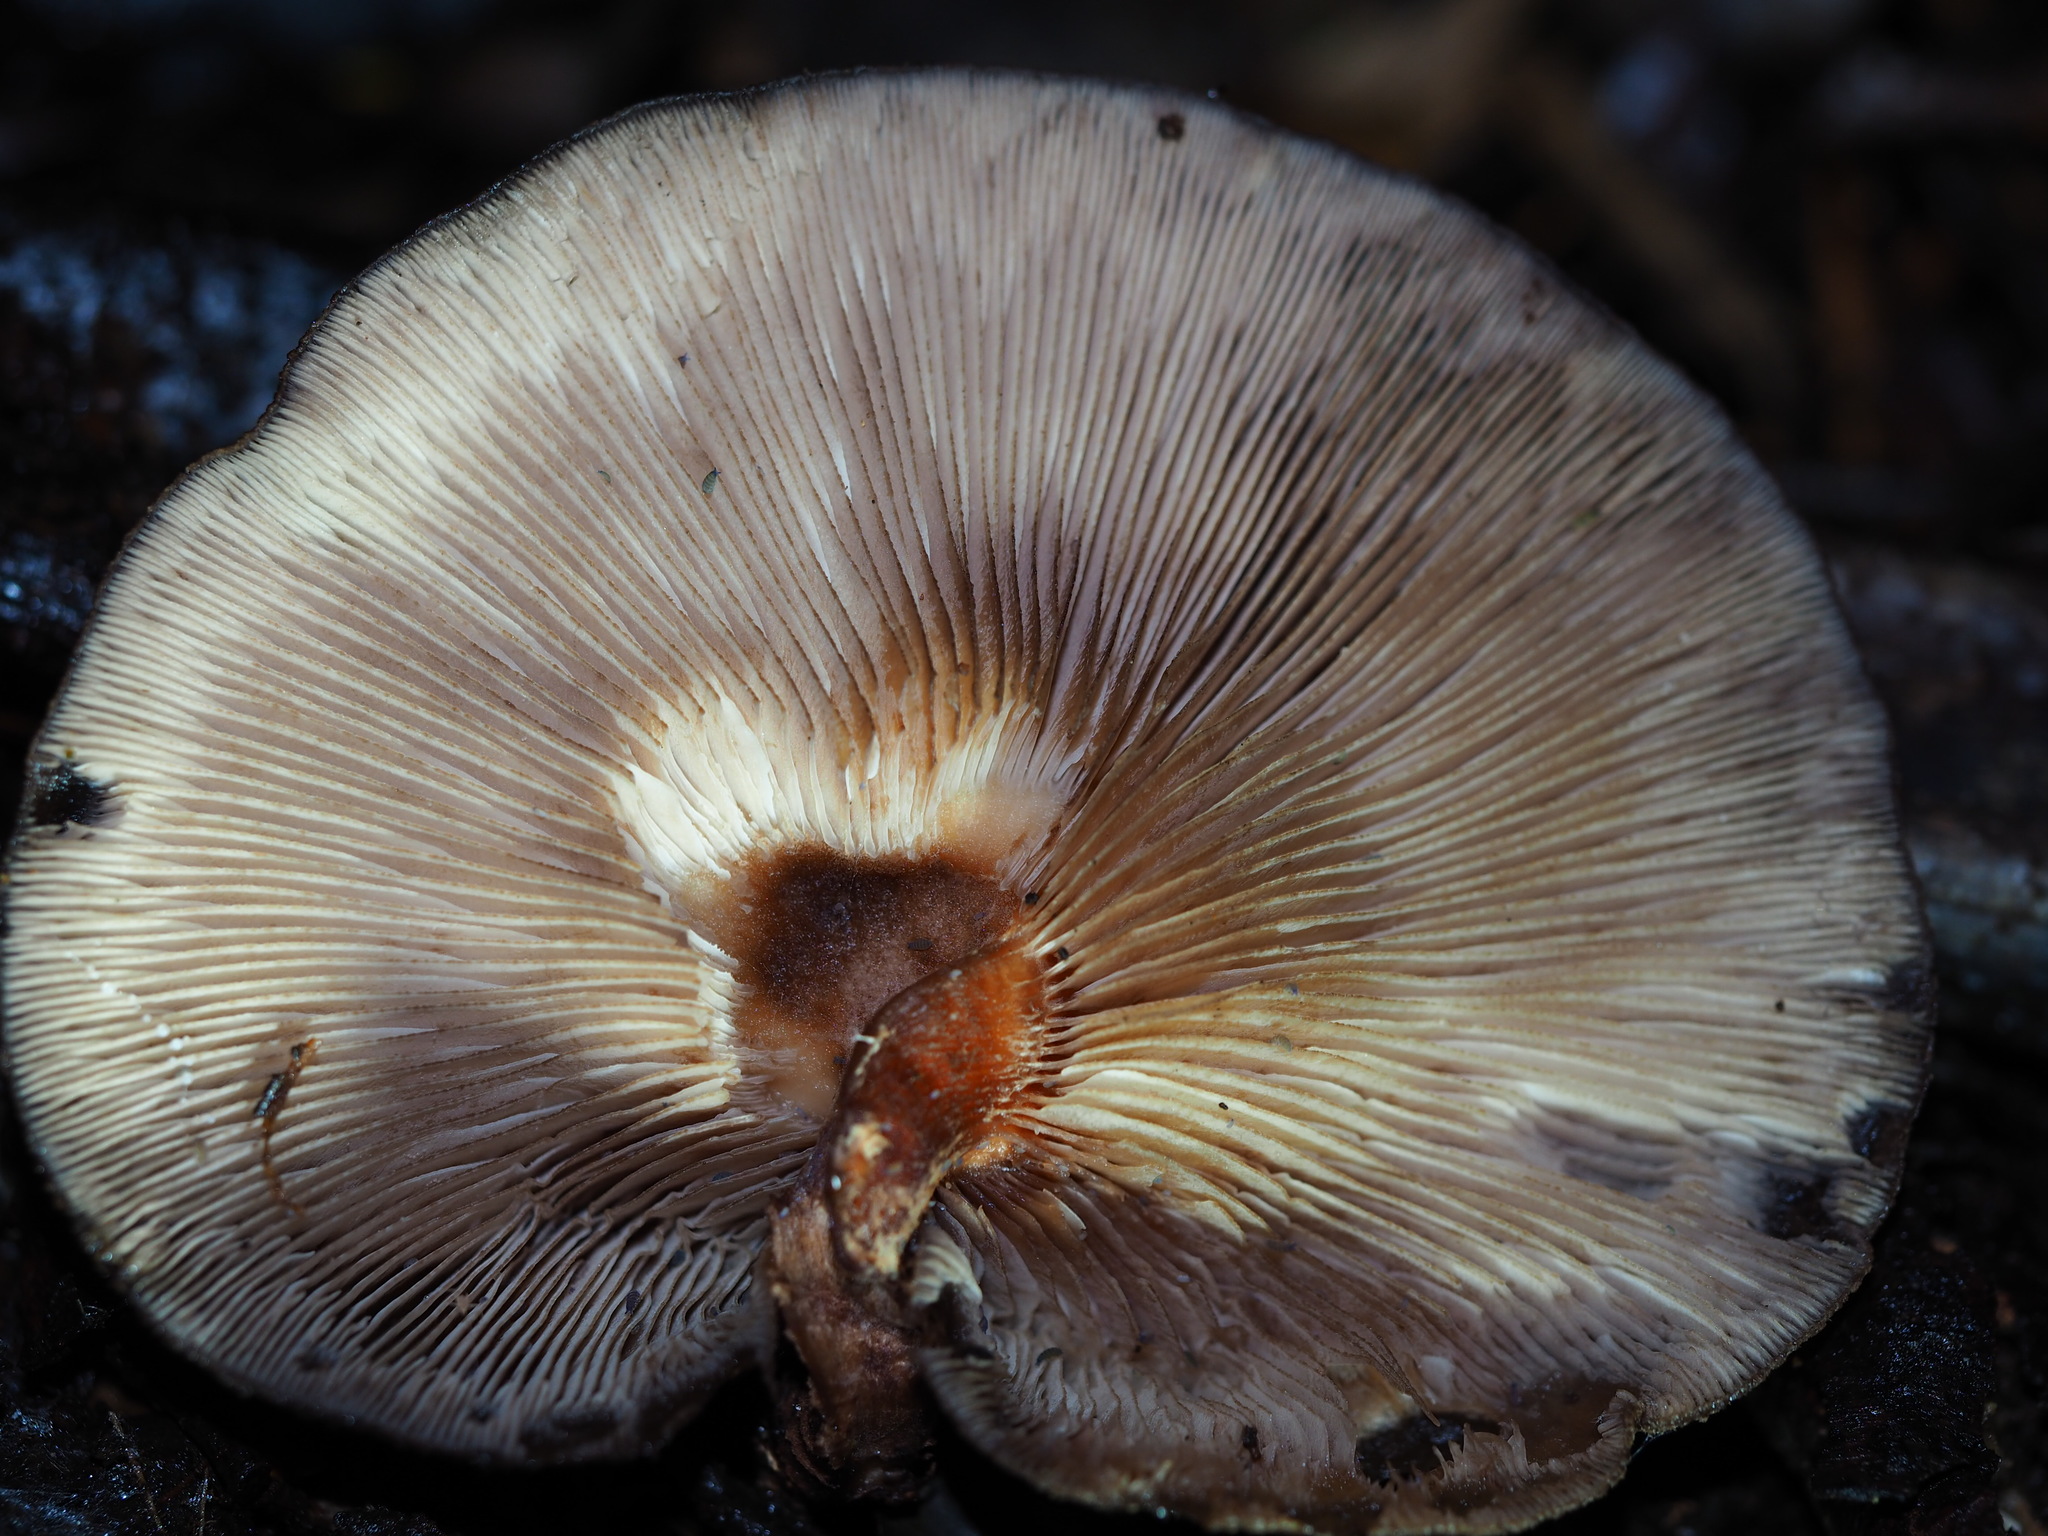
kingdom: Fungi
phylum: Basidiomycota
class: Agaricomycetes
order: Agaricales
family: Omphalotaceae
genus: Lentinula
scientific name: Lentinula novae-zelandiae
